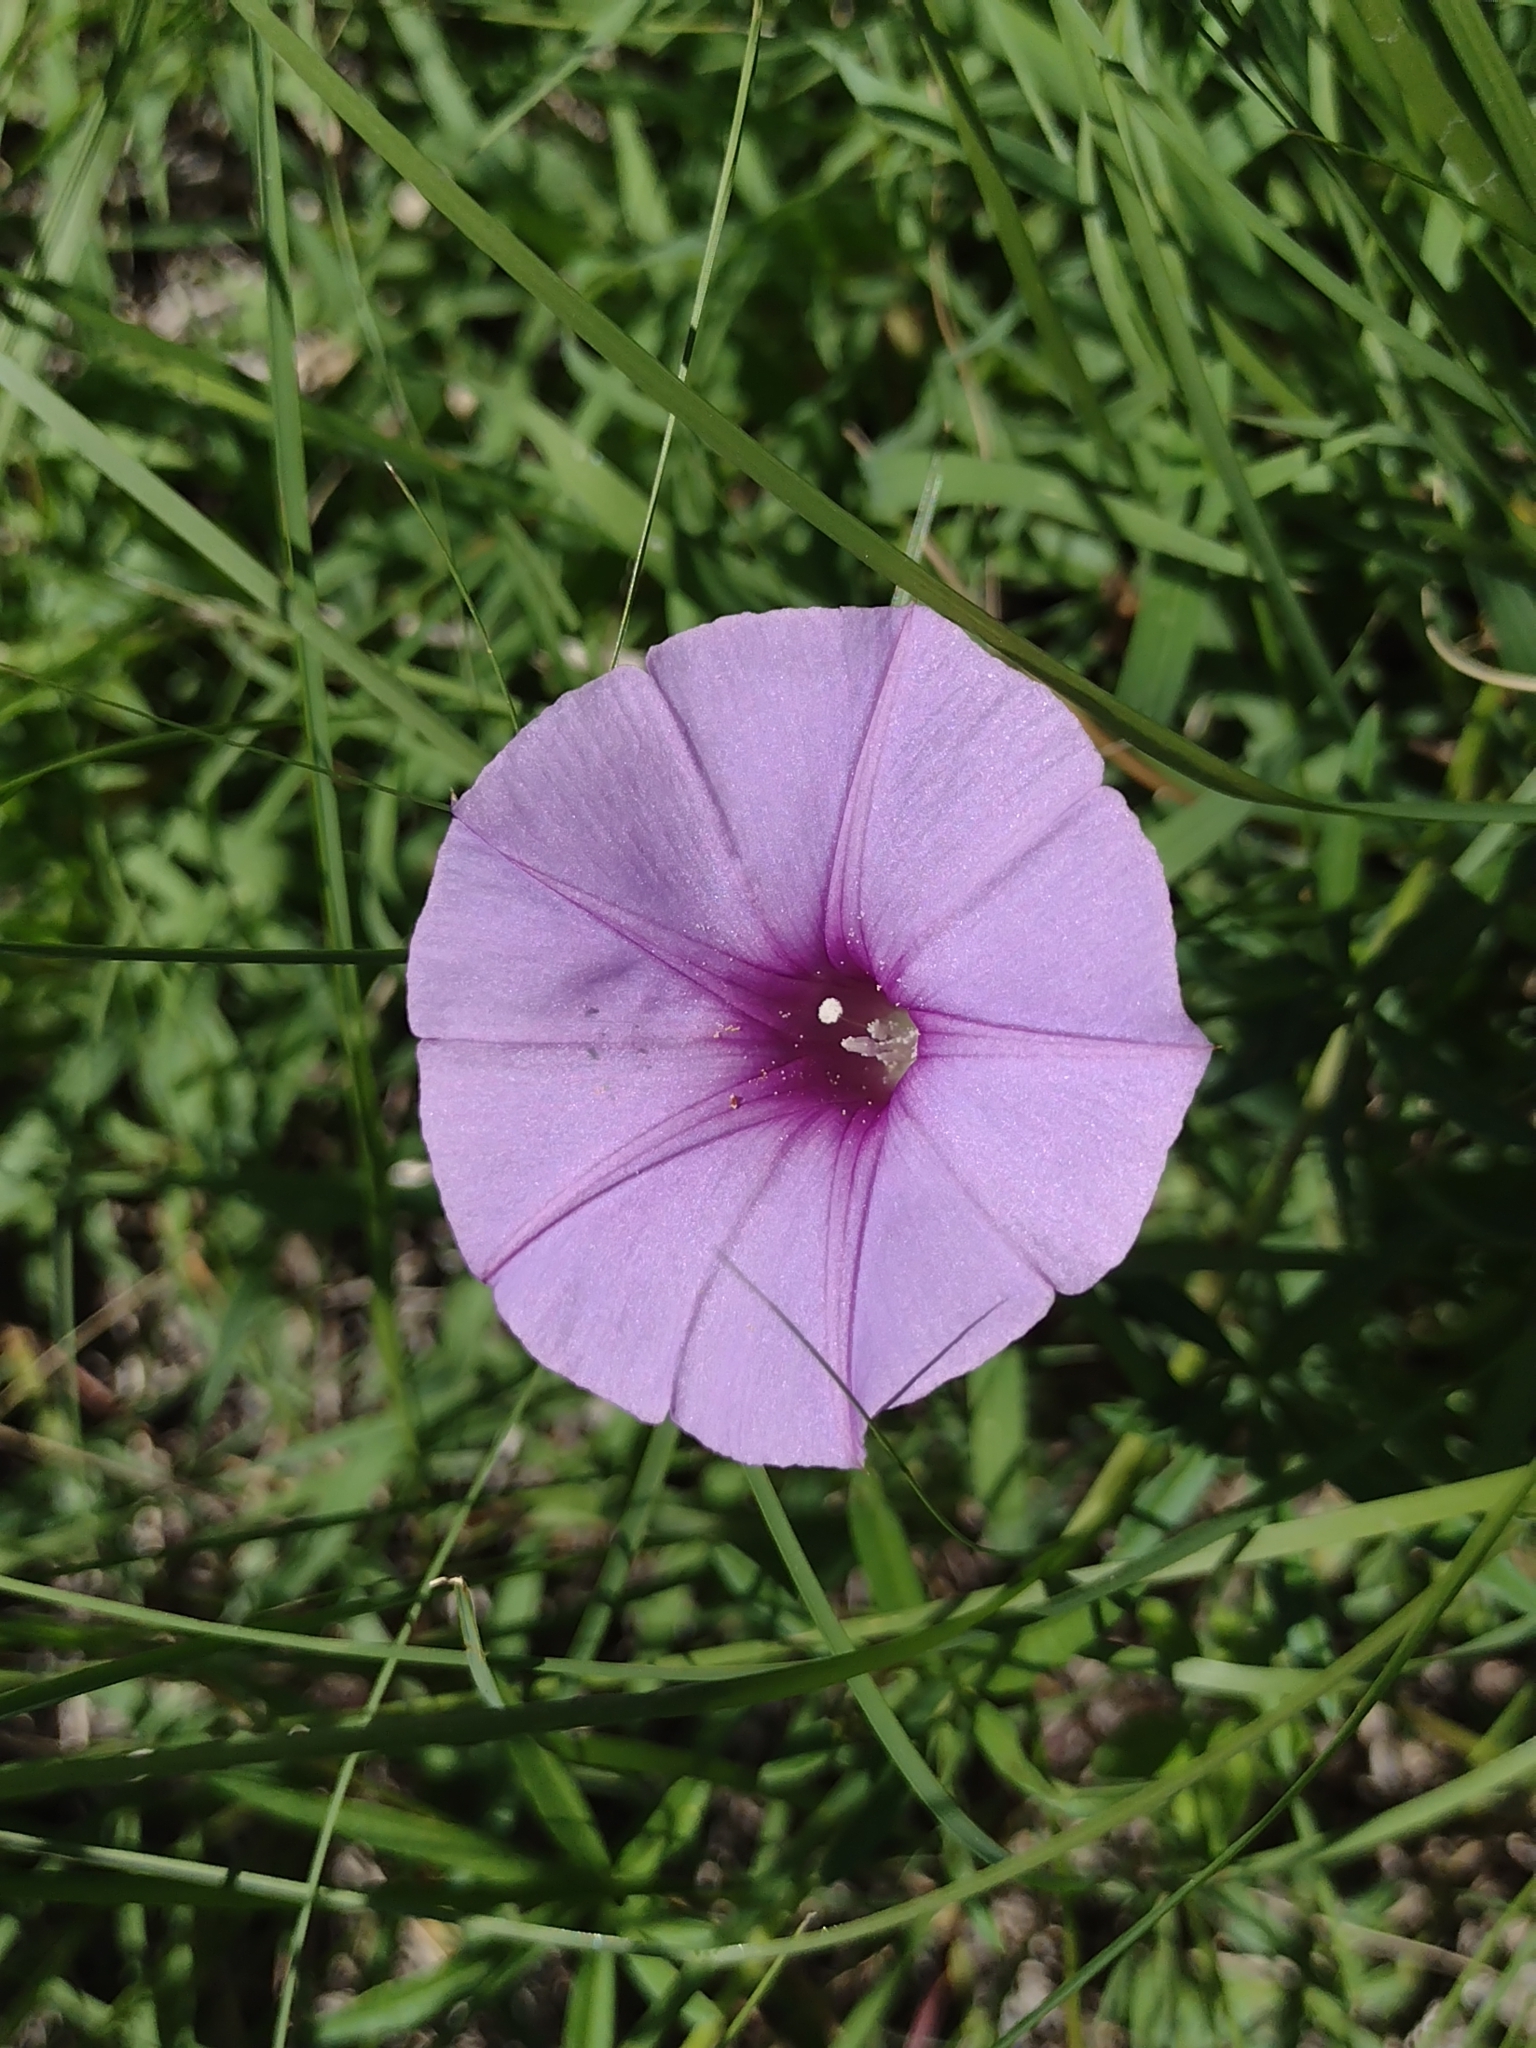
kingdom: Plantae
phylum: Tracheophyta
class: Magnoliopsida
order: Solanales
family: Convolvulaceae
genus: Ipomoea
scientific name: Ipomoea ternifolia
